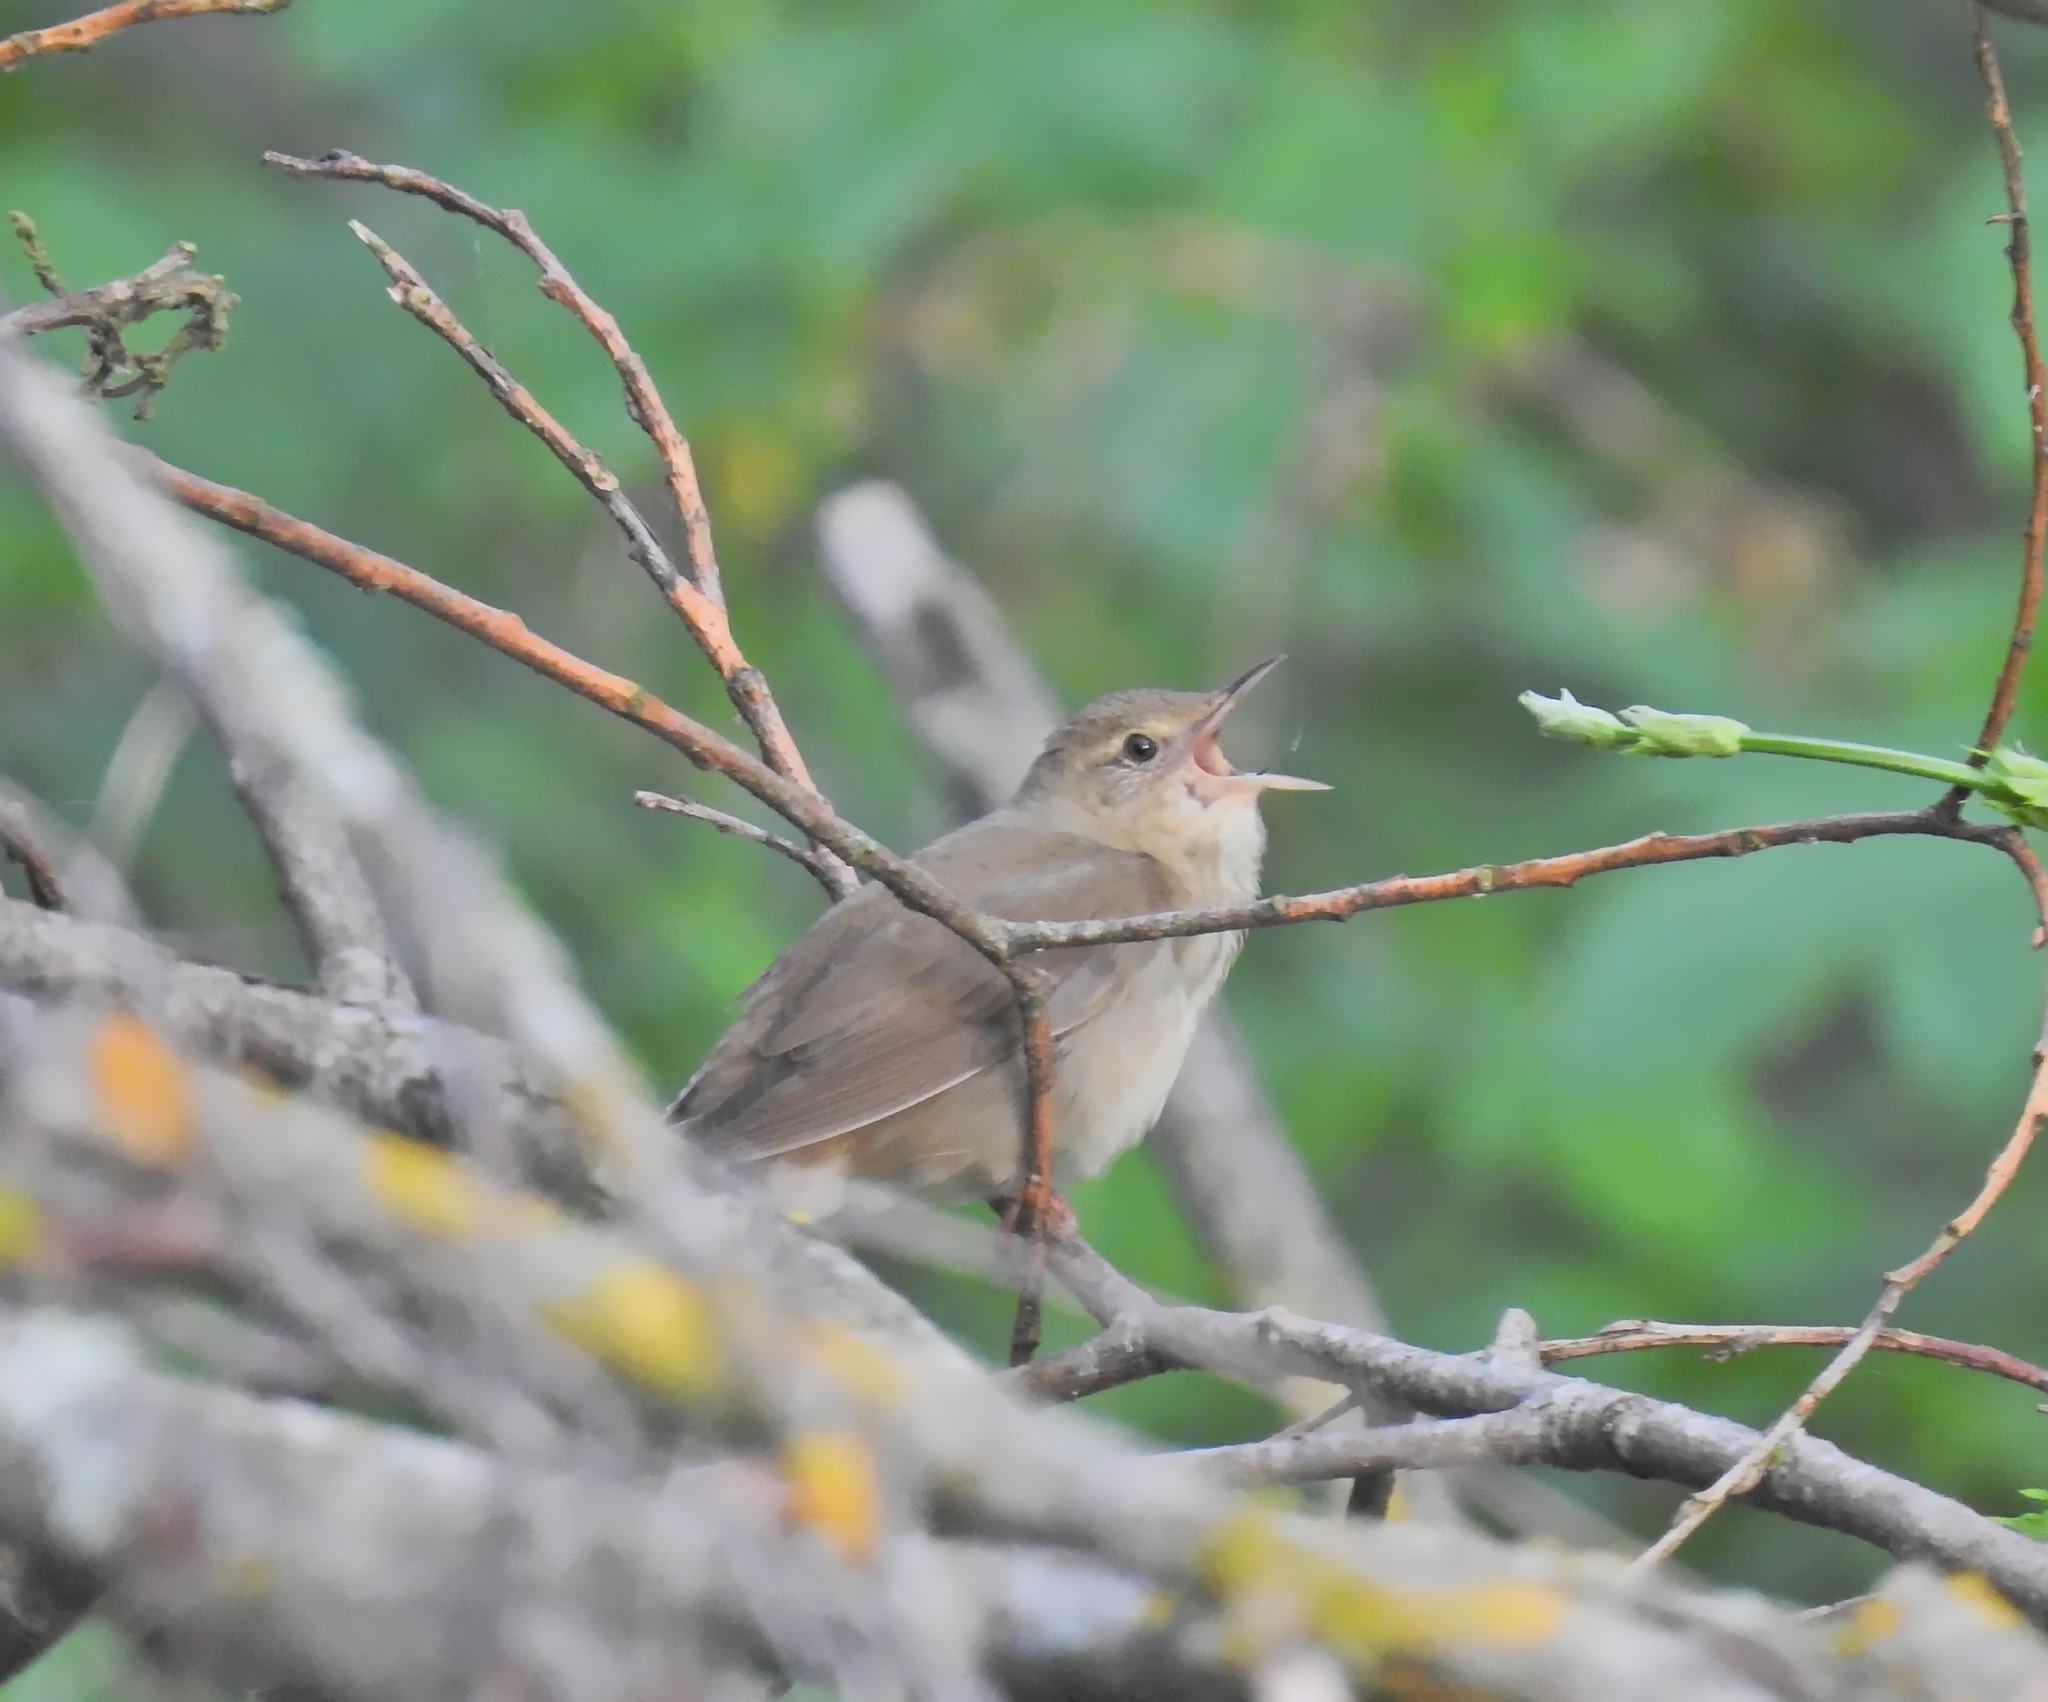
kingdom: Animalia
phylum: Chordata
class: Aves
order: Passeriformes
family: Locustellidae
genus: Locustella
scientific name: Locustella fluviatilis
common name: River warbler
